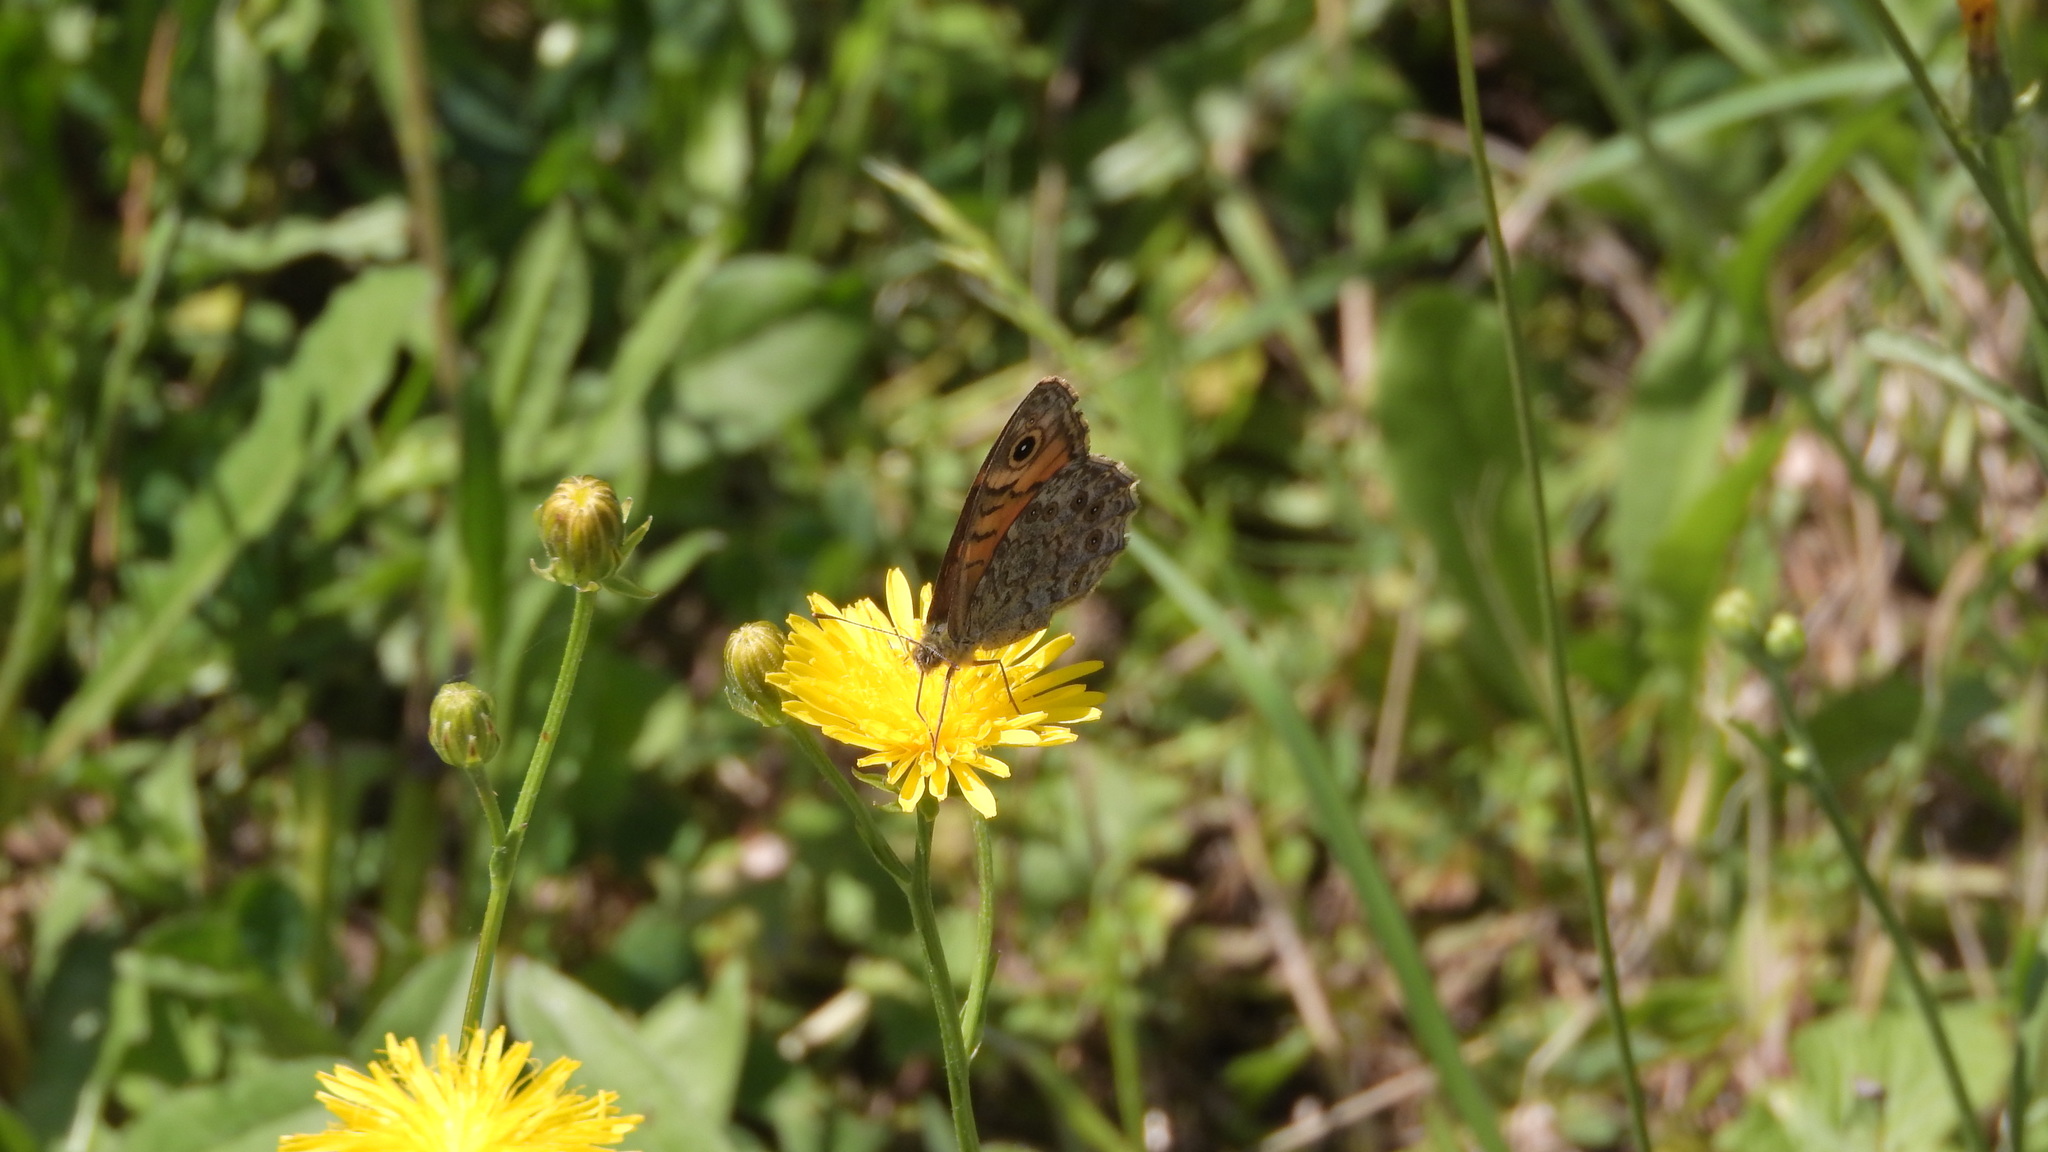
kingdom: Animalia
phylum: Arthropoda
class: Insecta
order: Lepidoptera
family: Nymphalidae
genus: Pararge
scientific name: Pararge Lasiommata megera
